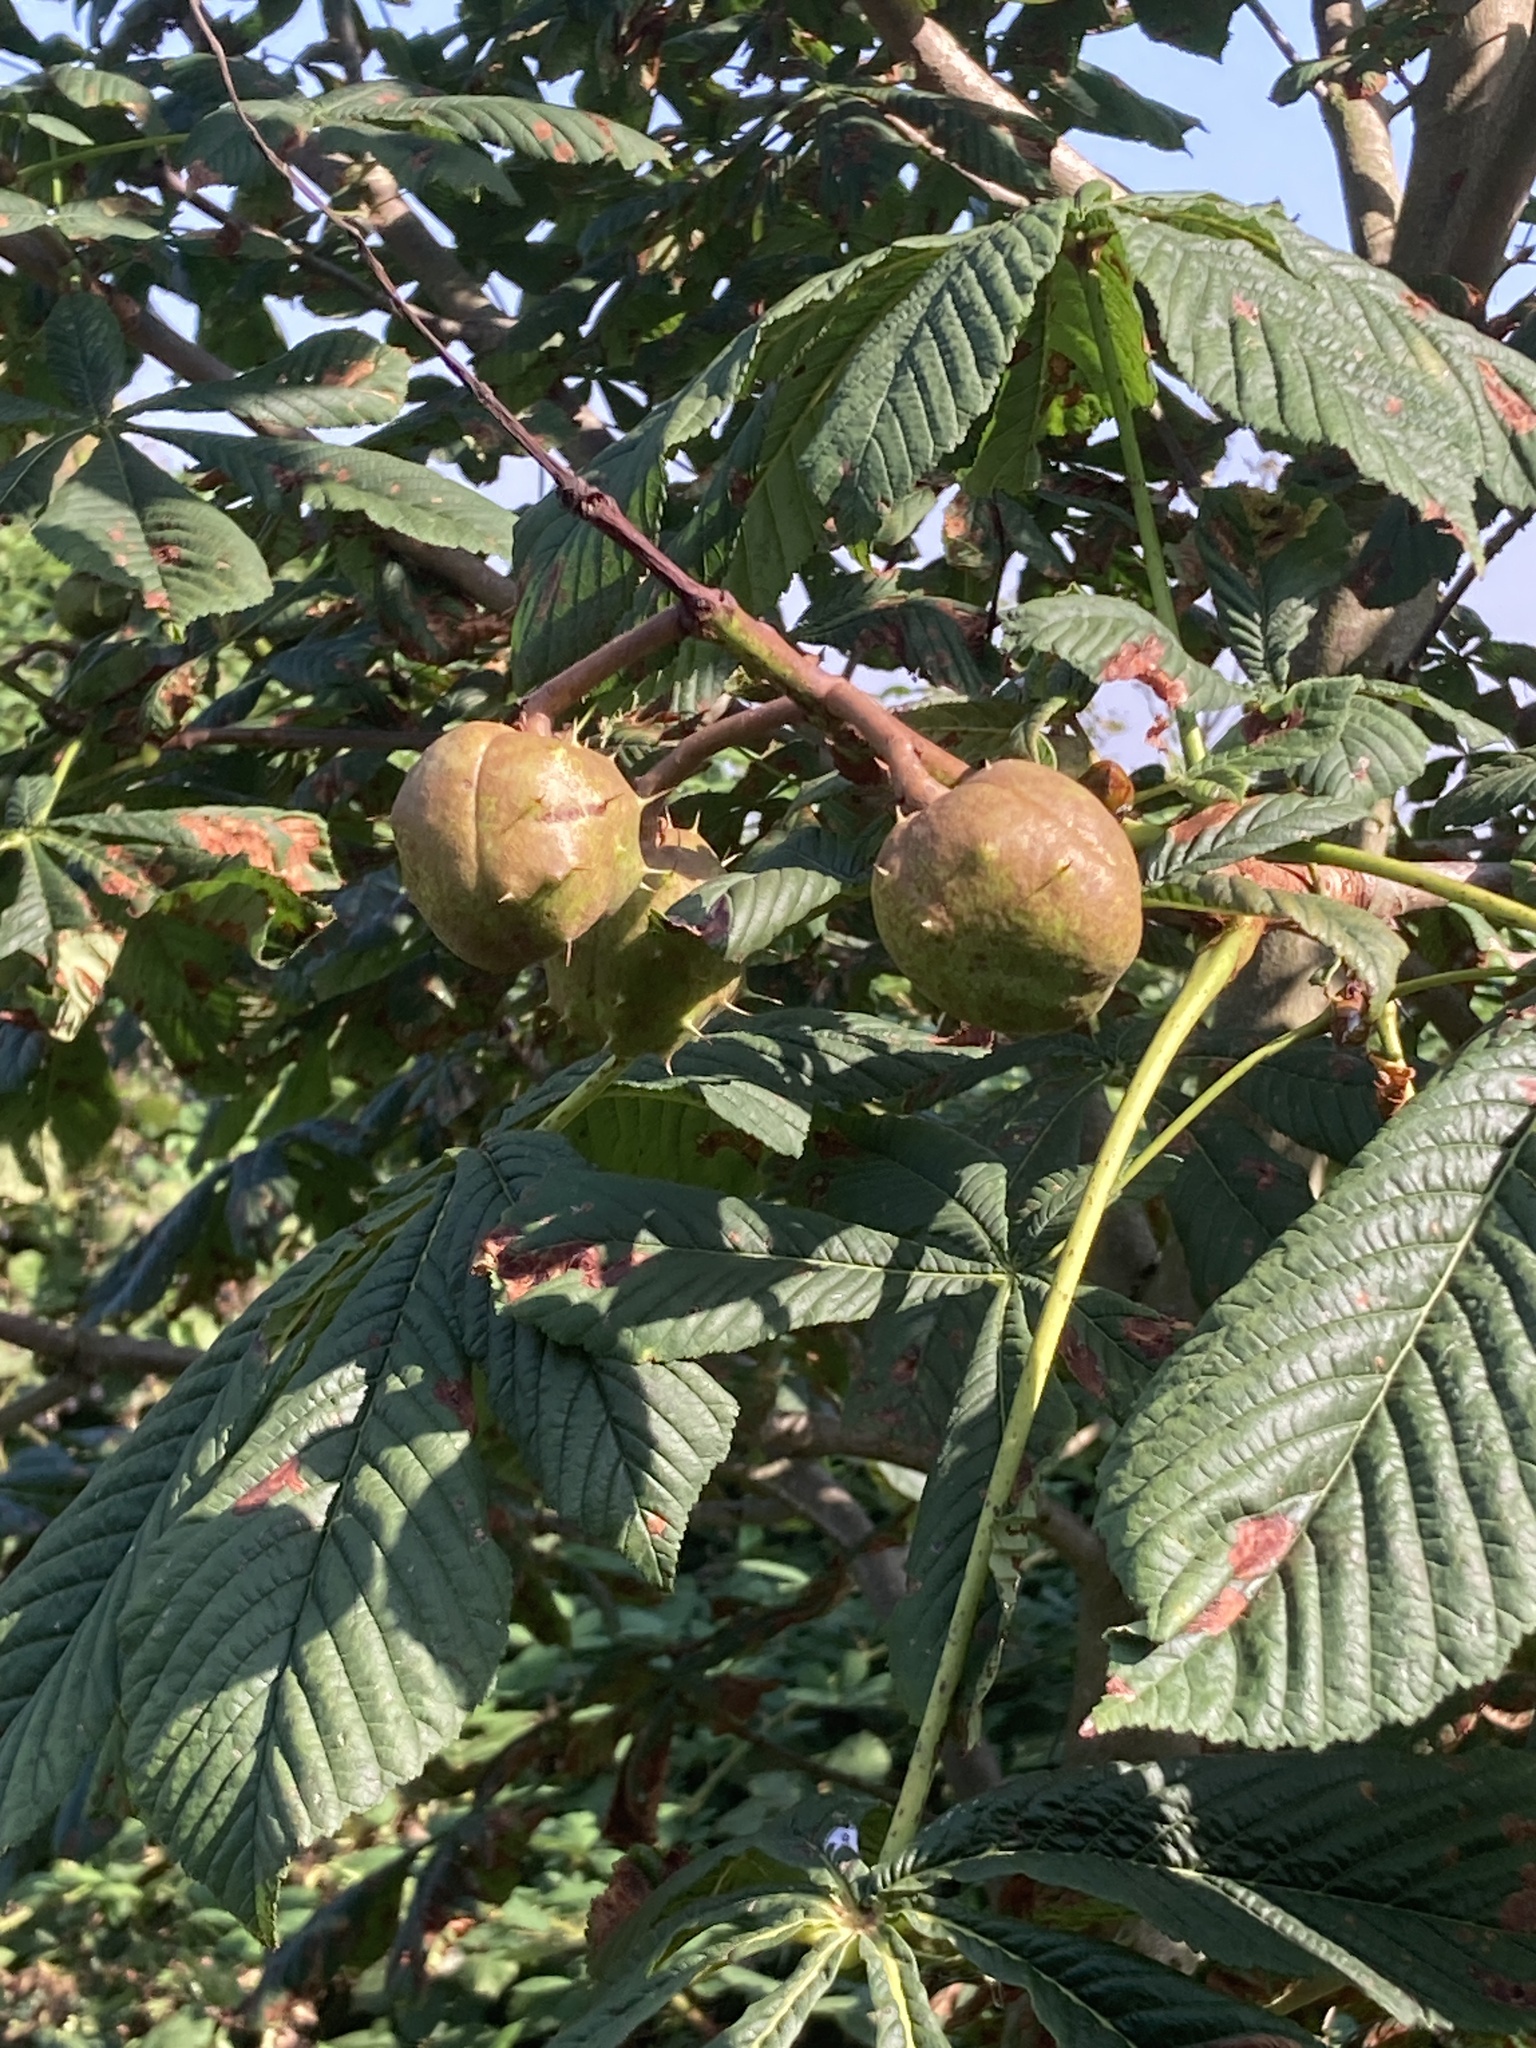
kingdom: Plantae
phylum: Tracheophyta
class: Magnoliopsida
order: Sapindales
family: Sapindaceae
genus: Aesculus
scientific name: Aesculus hippocastanum
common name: Horse-chestnut
